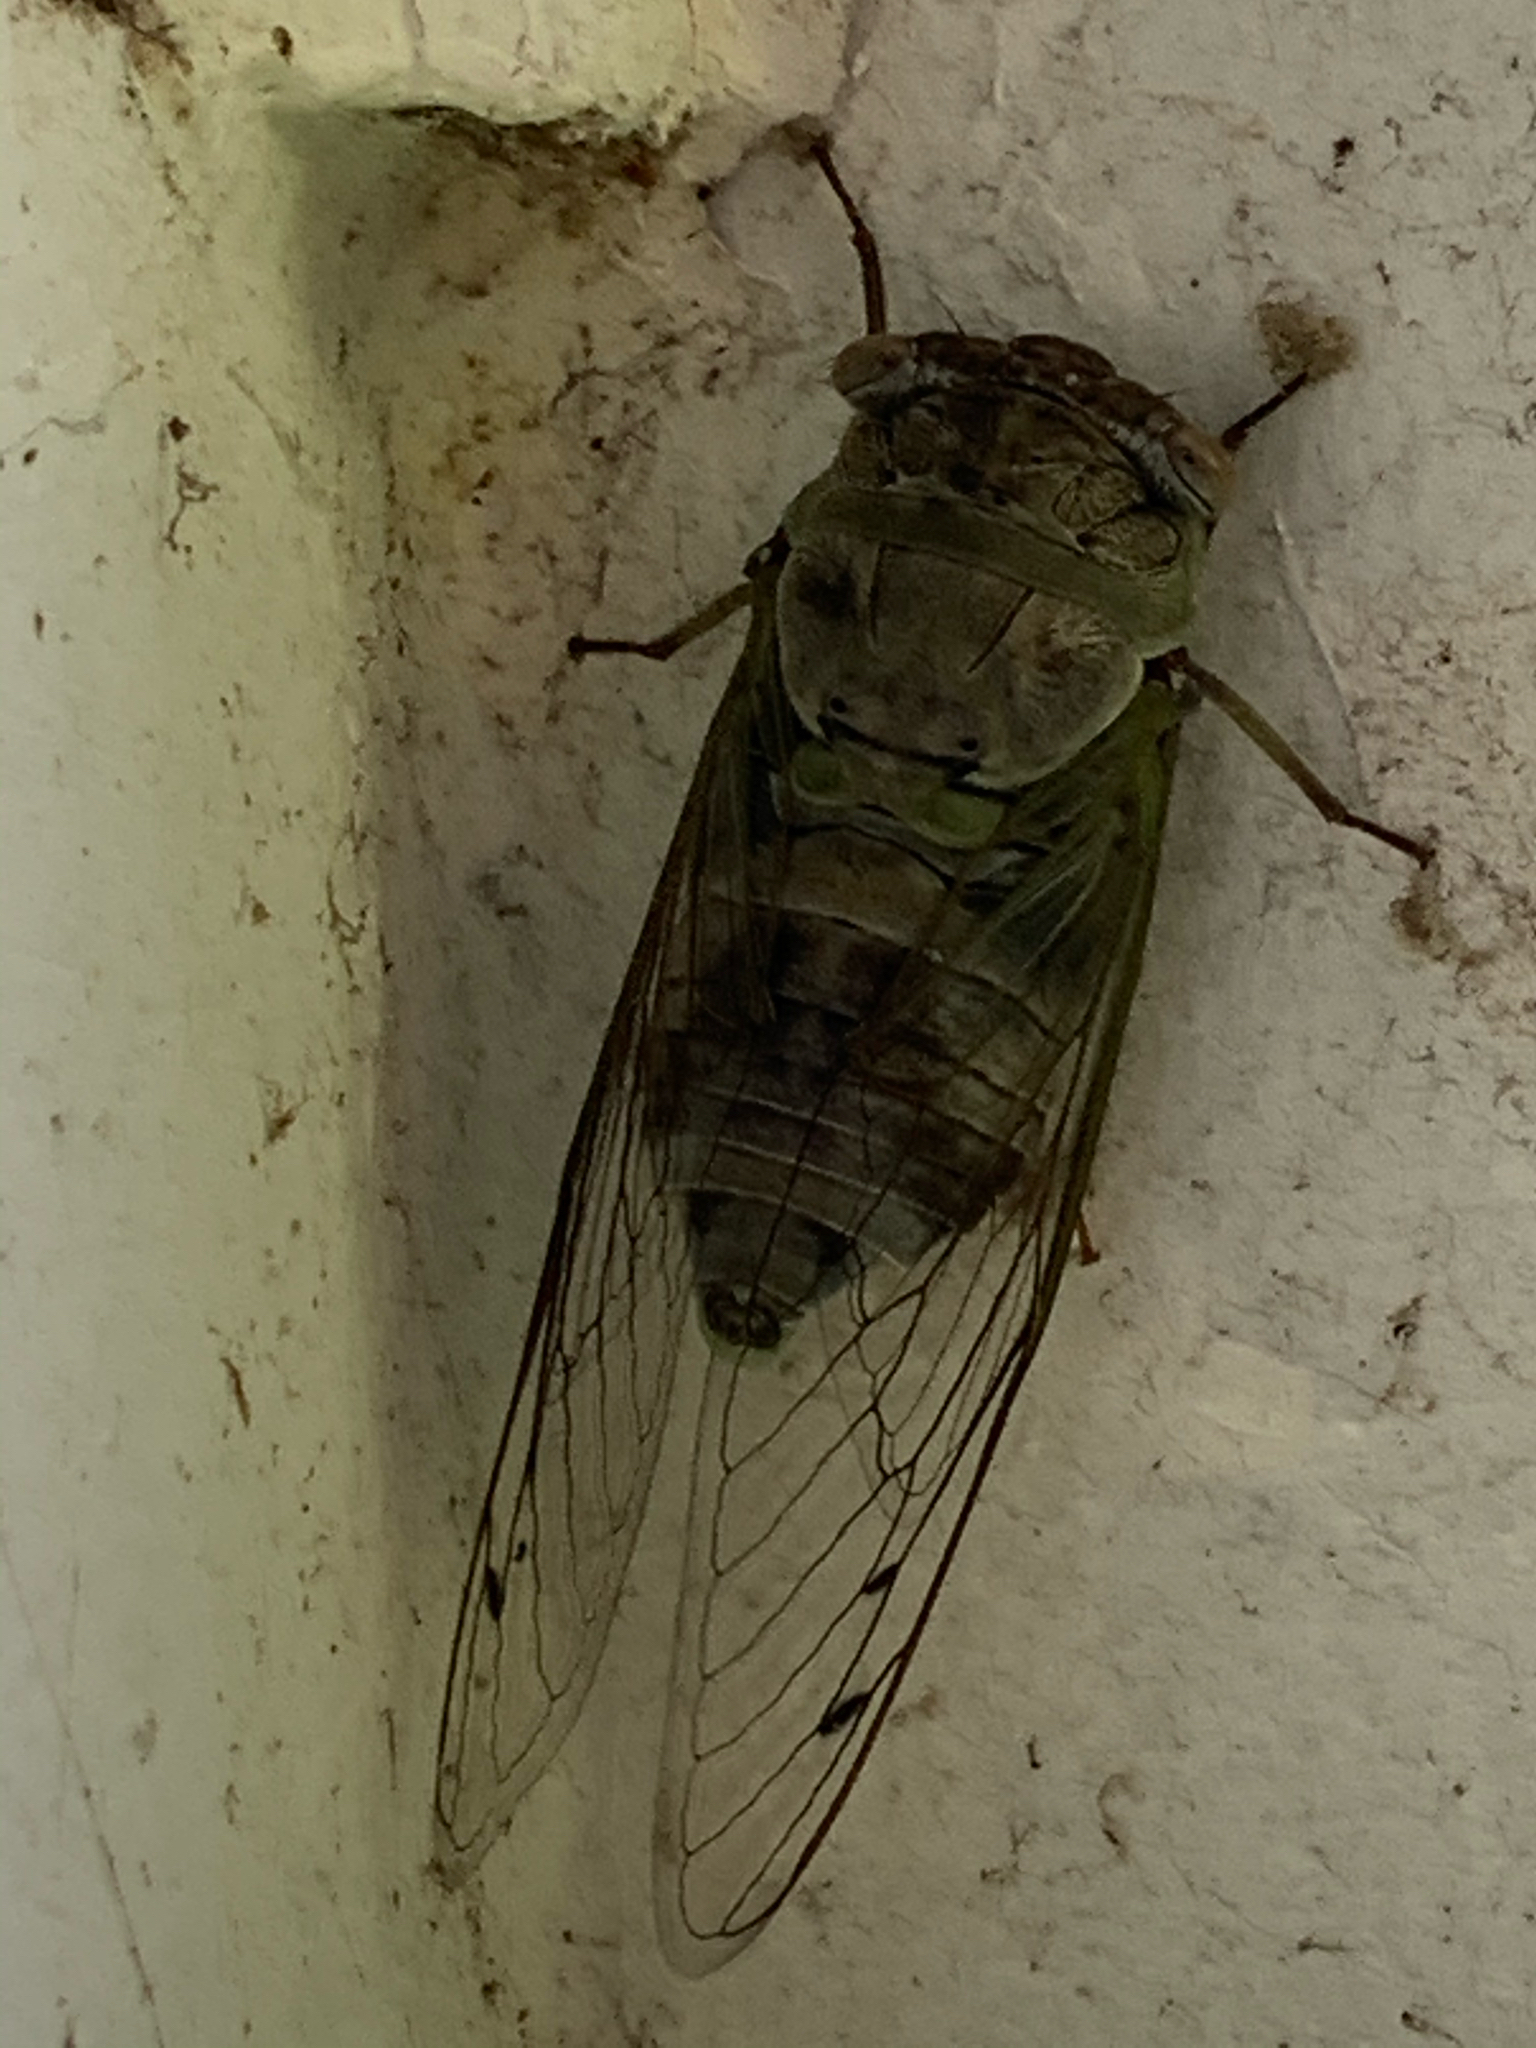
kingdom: Animalia
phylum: Arthropoda
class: Insecta
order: Hemiptera
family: Cicadidae
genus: Diceroprocta
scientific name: Diceroprocta grossa
